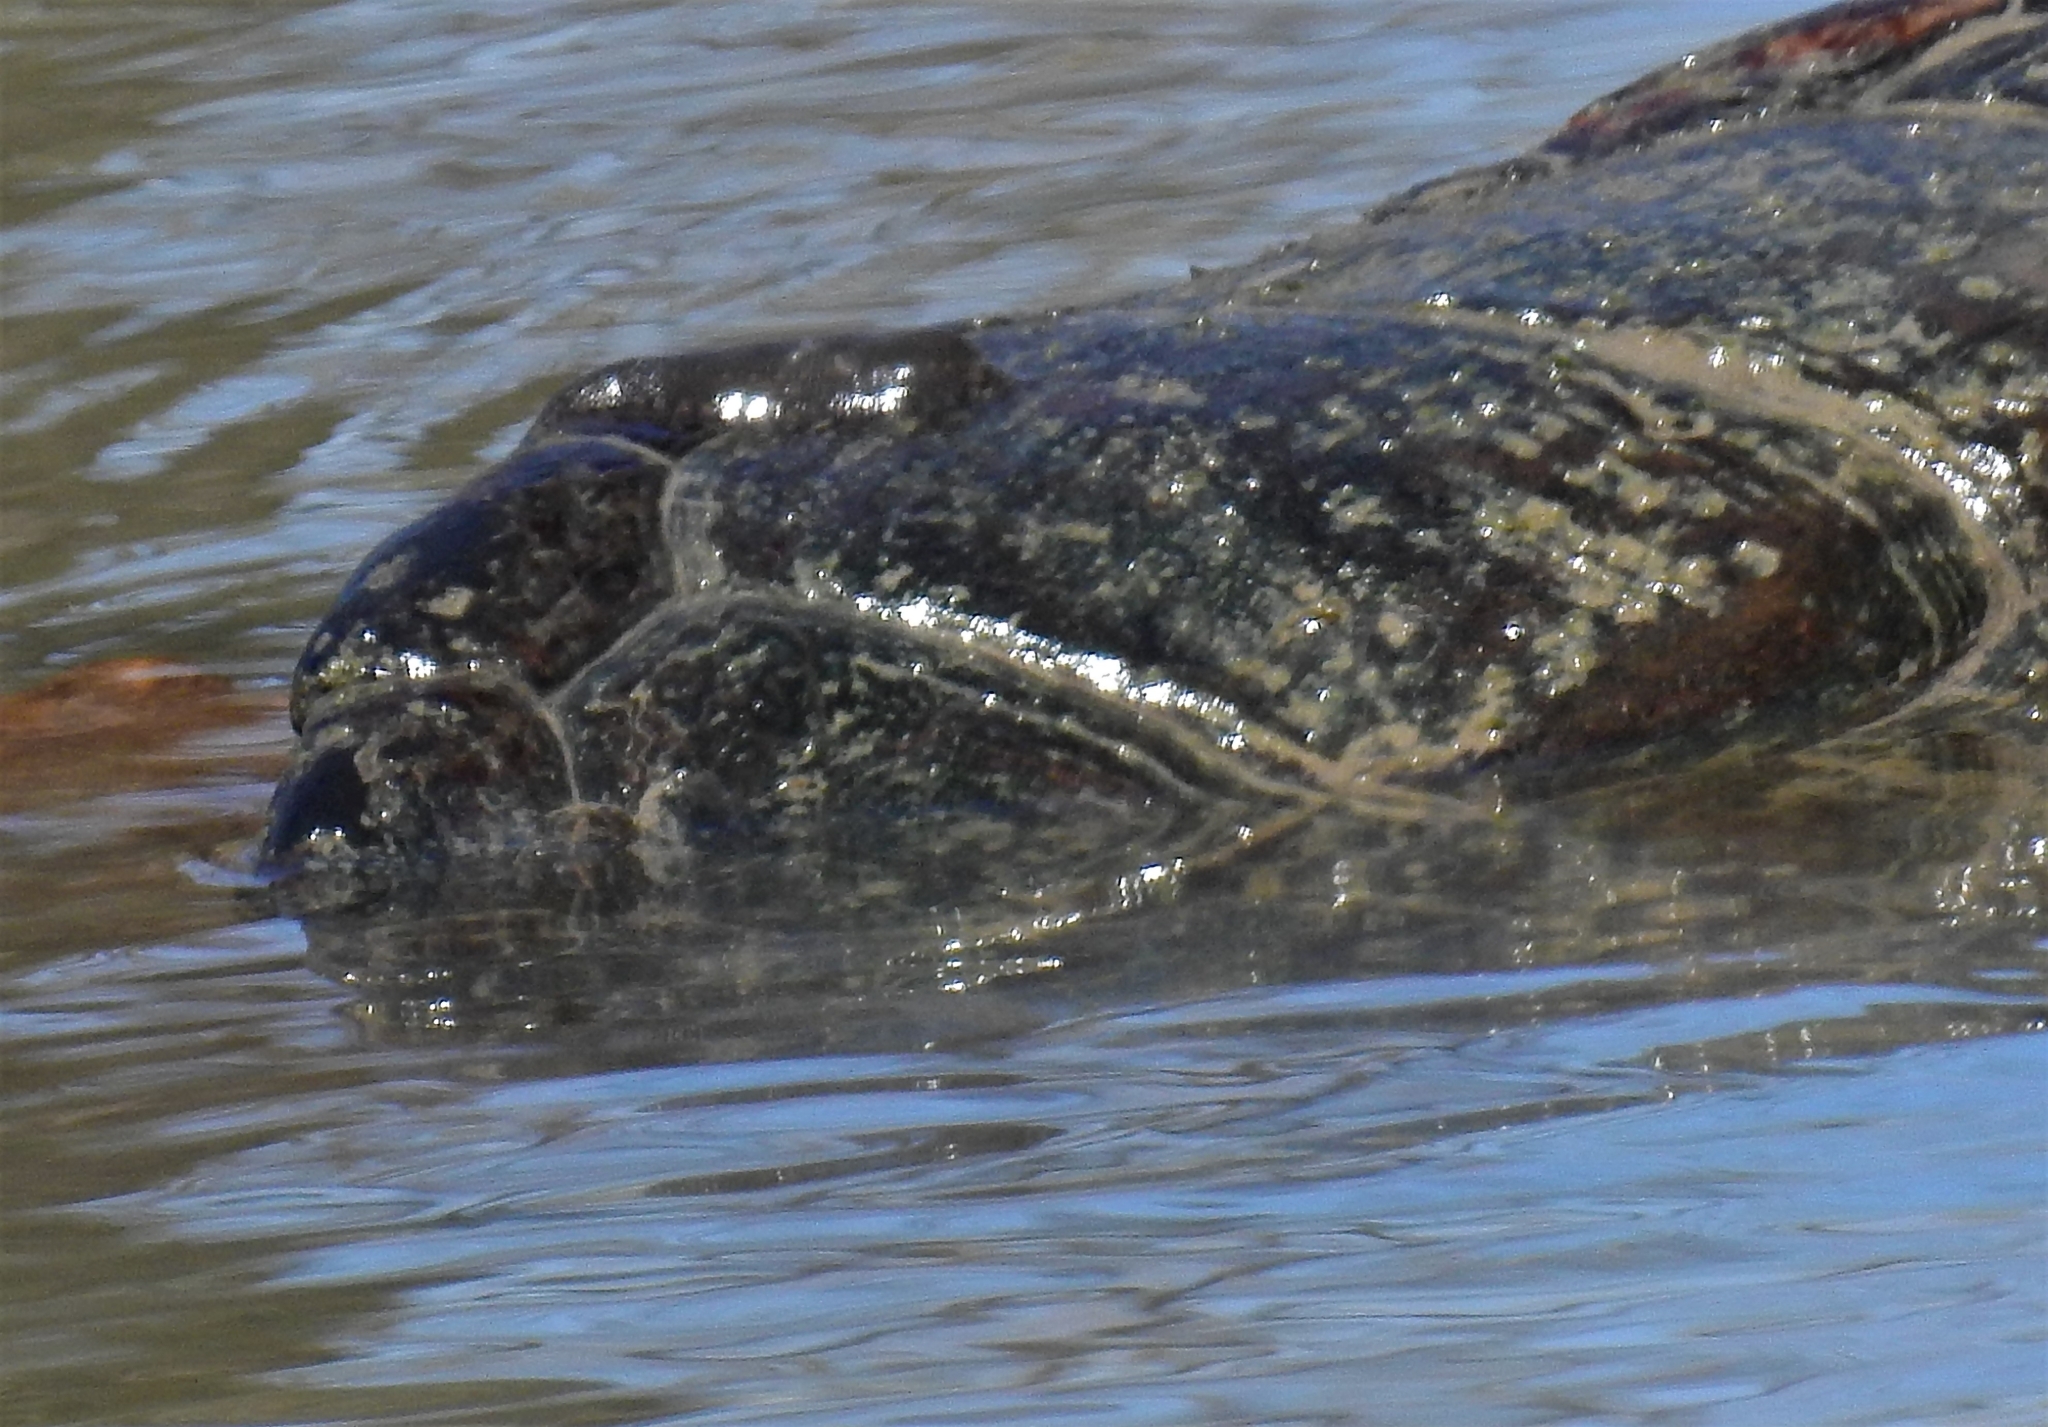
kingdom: Animalia
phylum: Chordata
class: Testudines
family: Chelydridae
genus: Chelydra
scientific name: Chelydra serpentina
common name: Common snapping turtle
